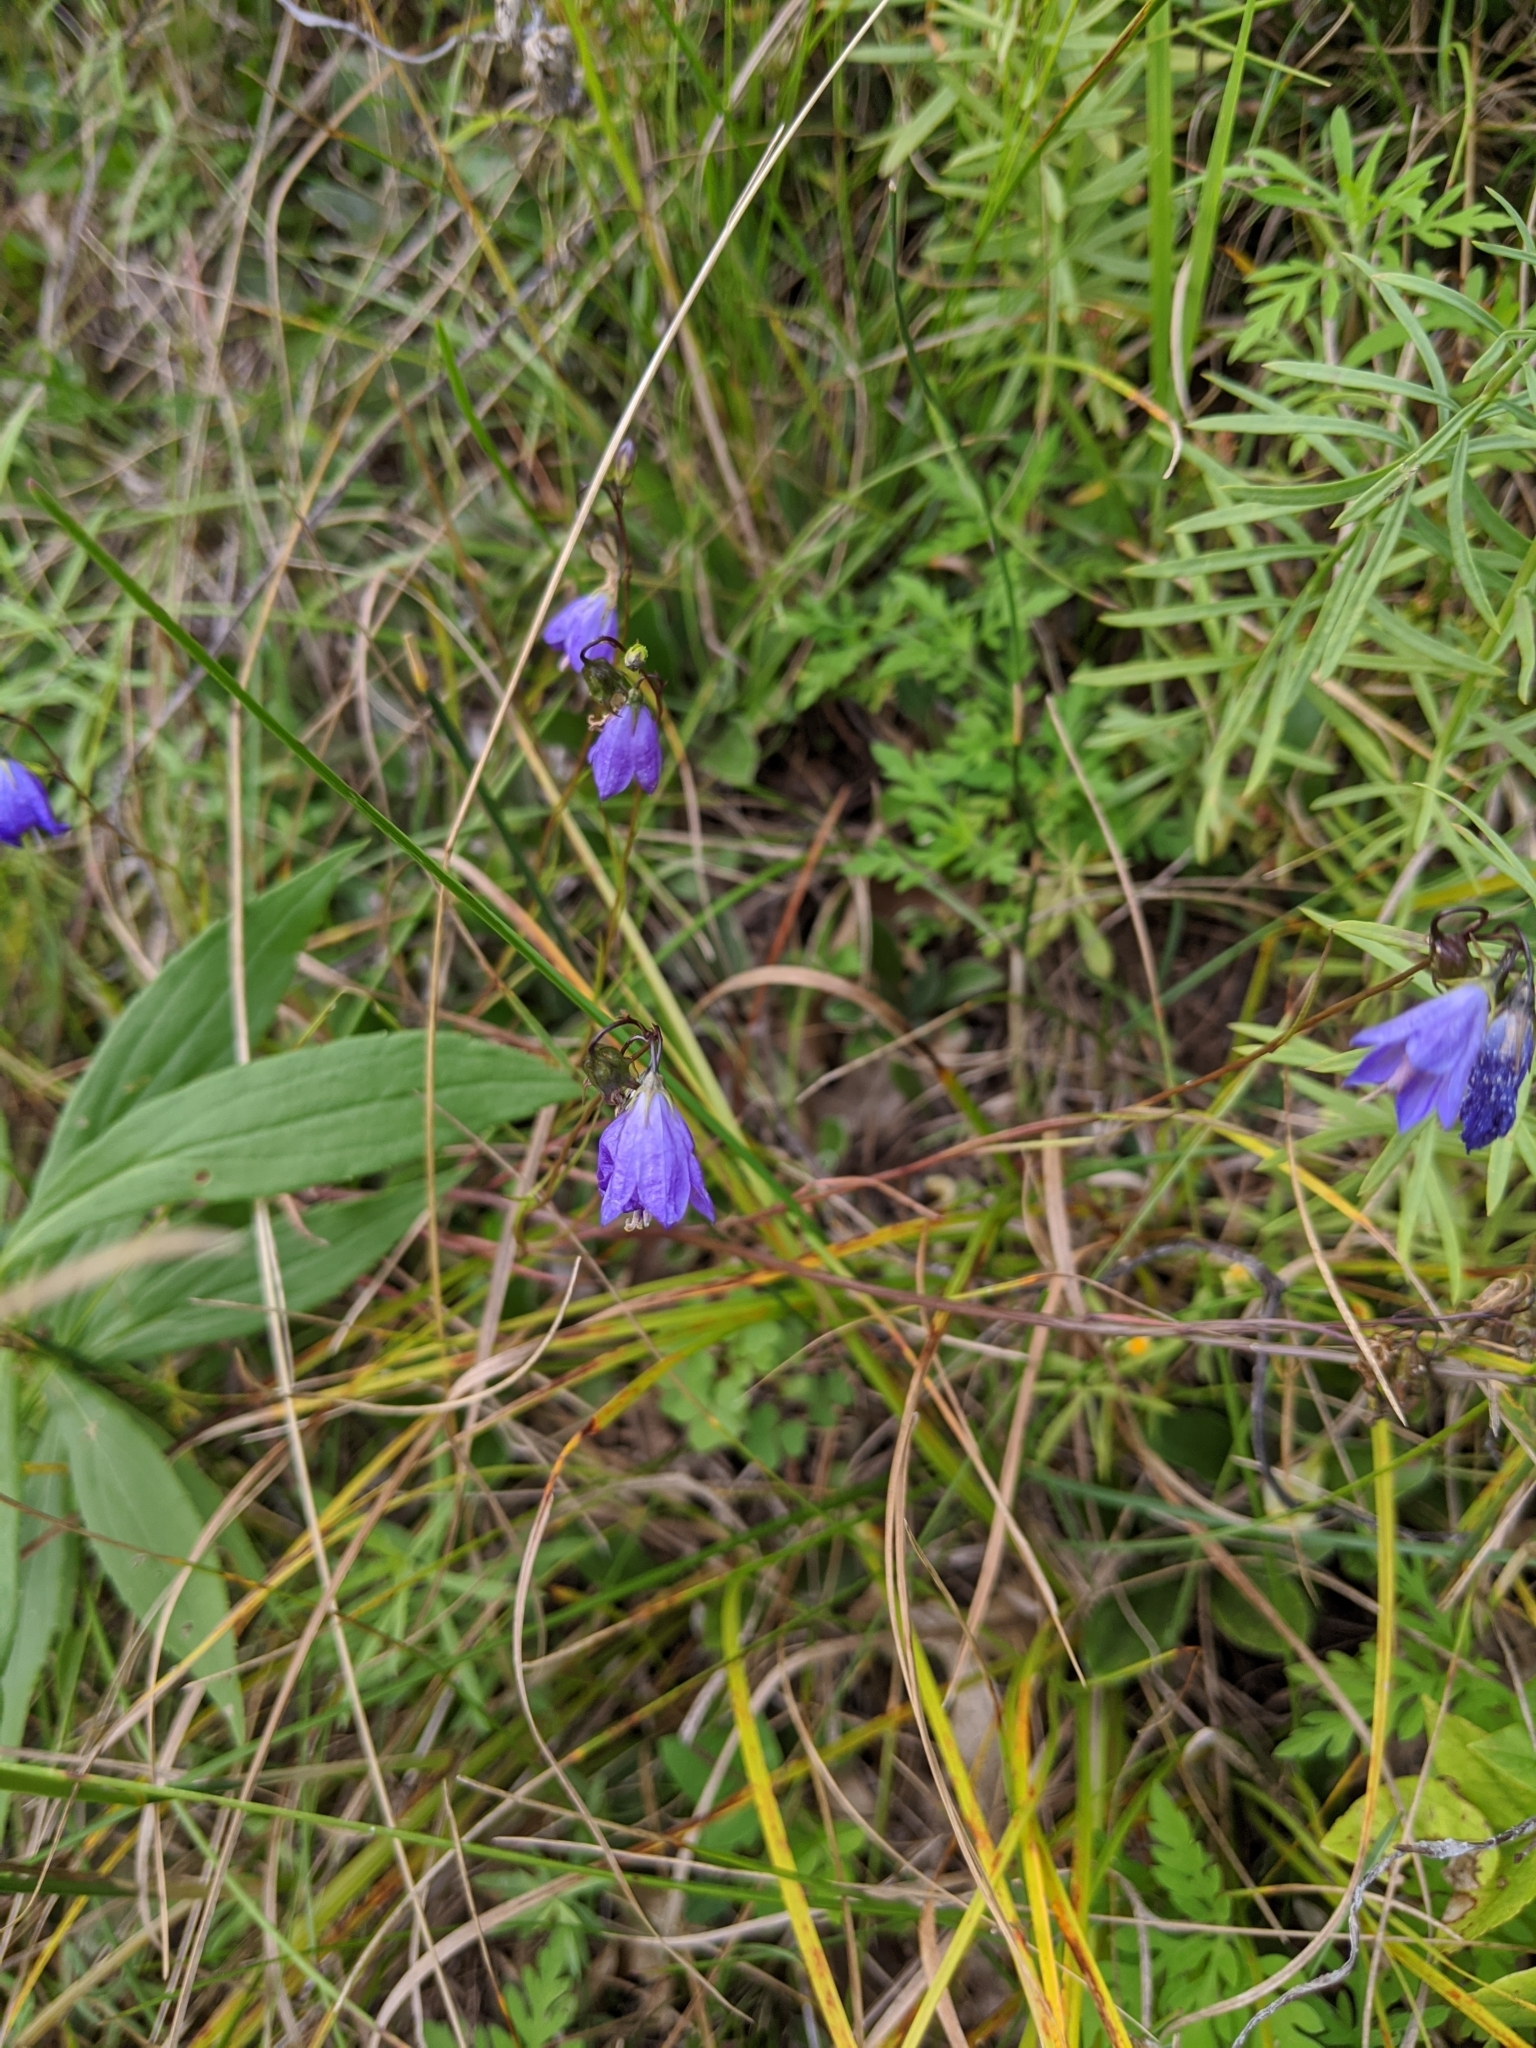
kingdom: Plantae
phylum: Tracheophyta
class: Magnoliopsida
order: Asterales
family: Campanulaceae
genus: Campanula
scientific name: Campanula intercedens
